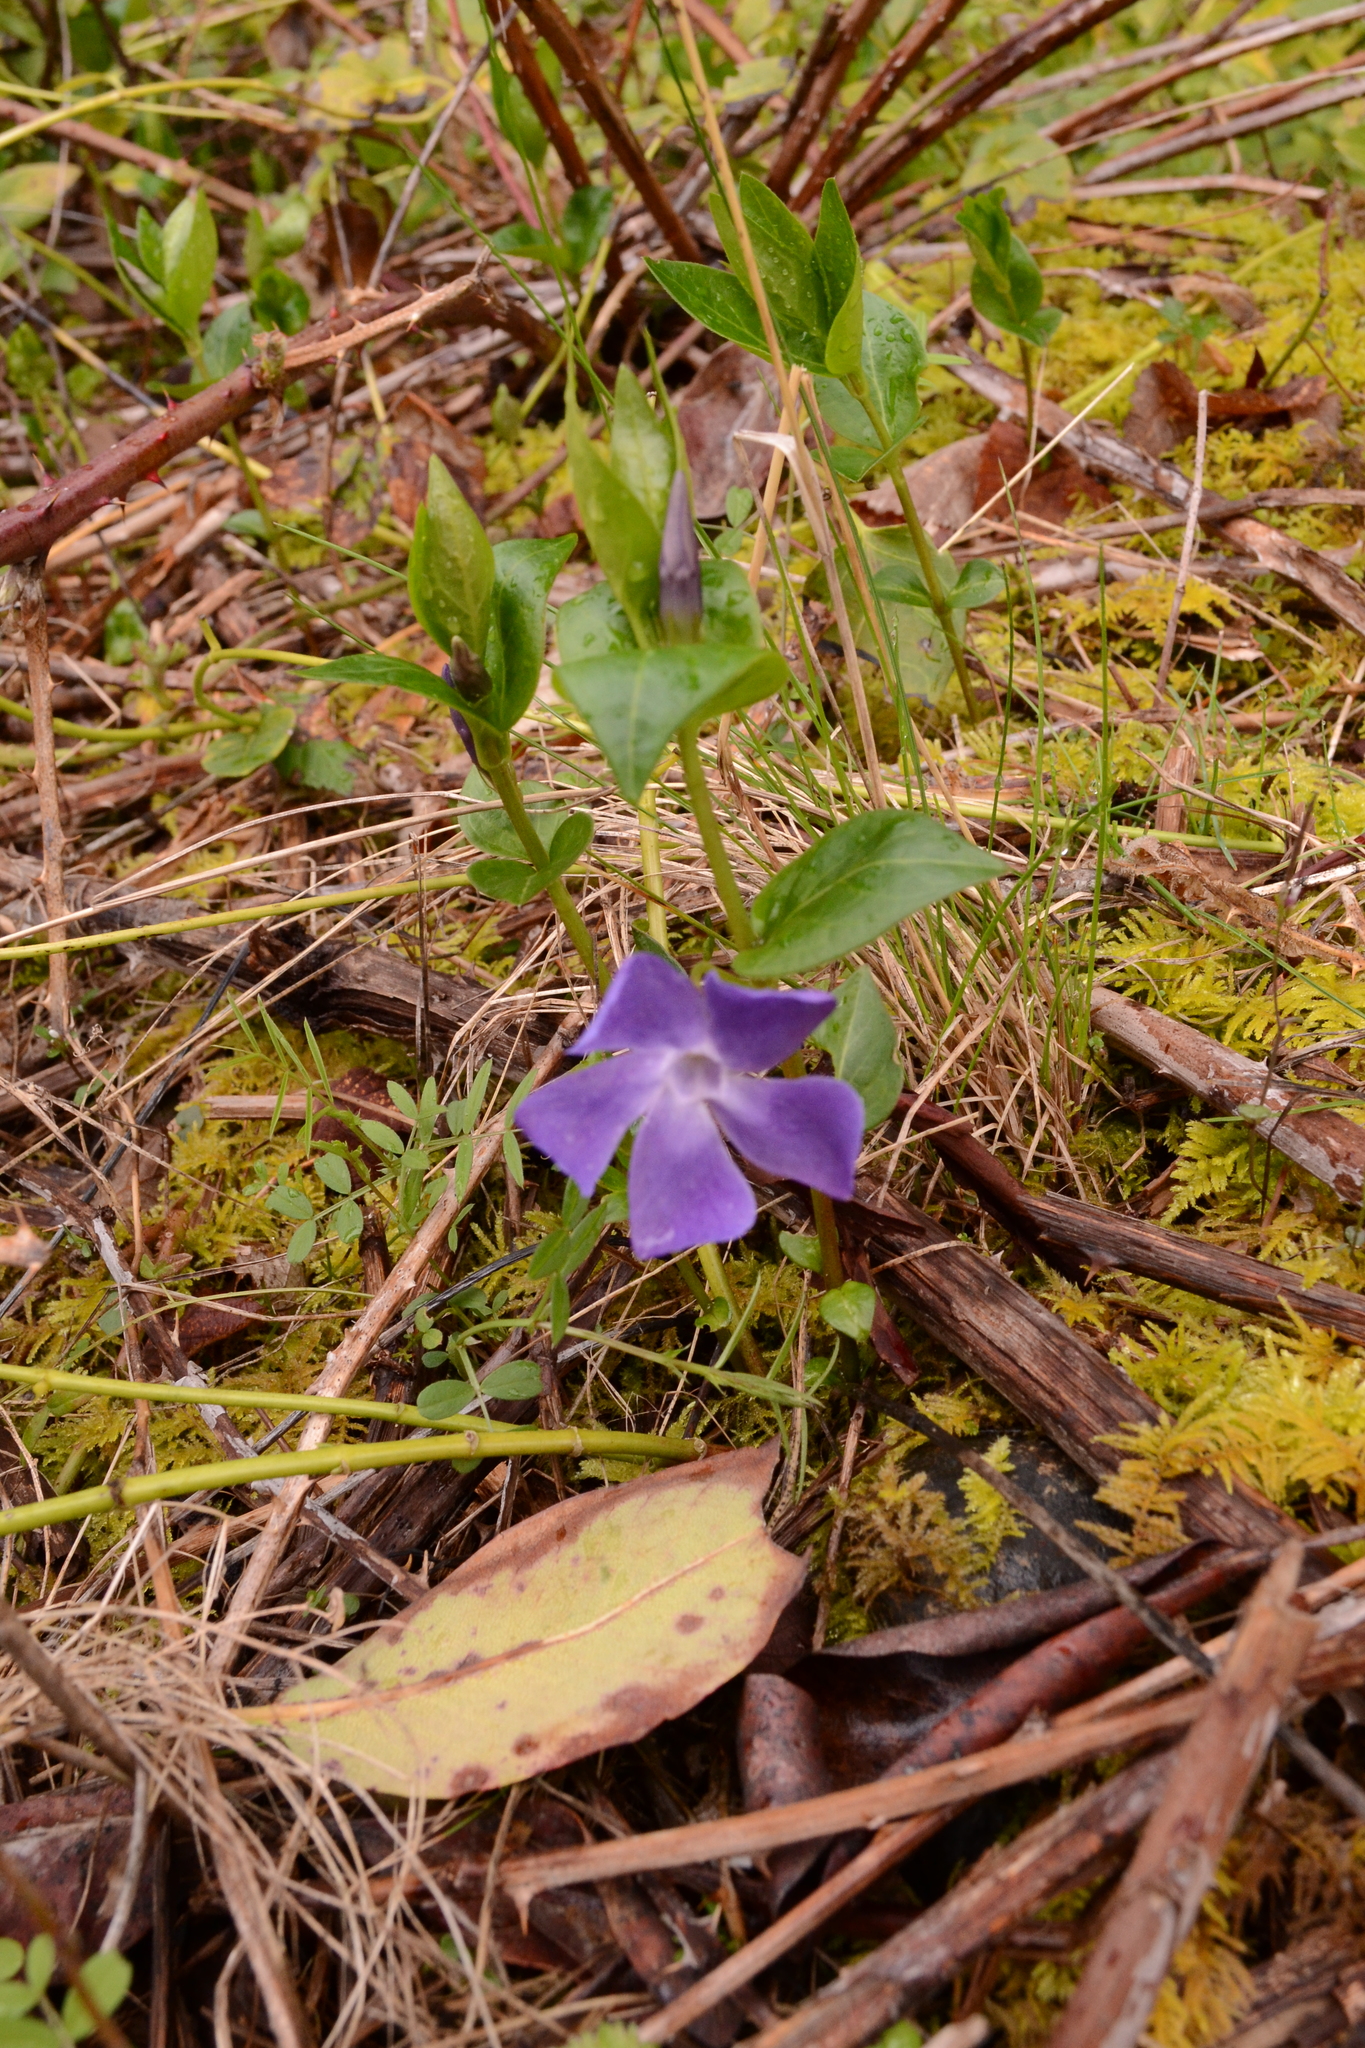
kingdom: Plantae
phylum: Tracheophyta
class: Magnoliopsida
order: Gentianales
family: Apocynaceae
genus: Vinca
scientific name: Vinca major
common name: Greater periwinkle
